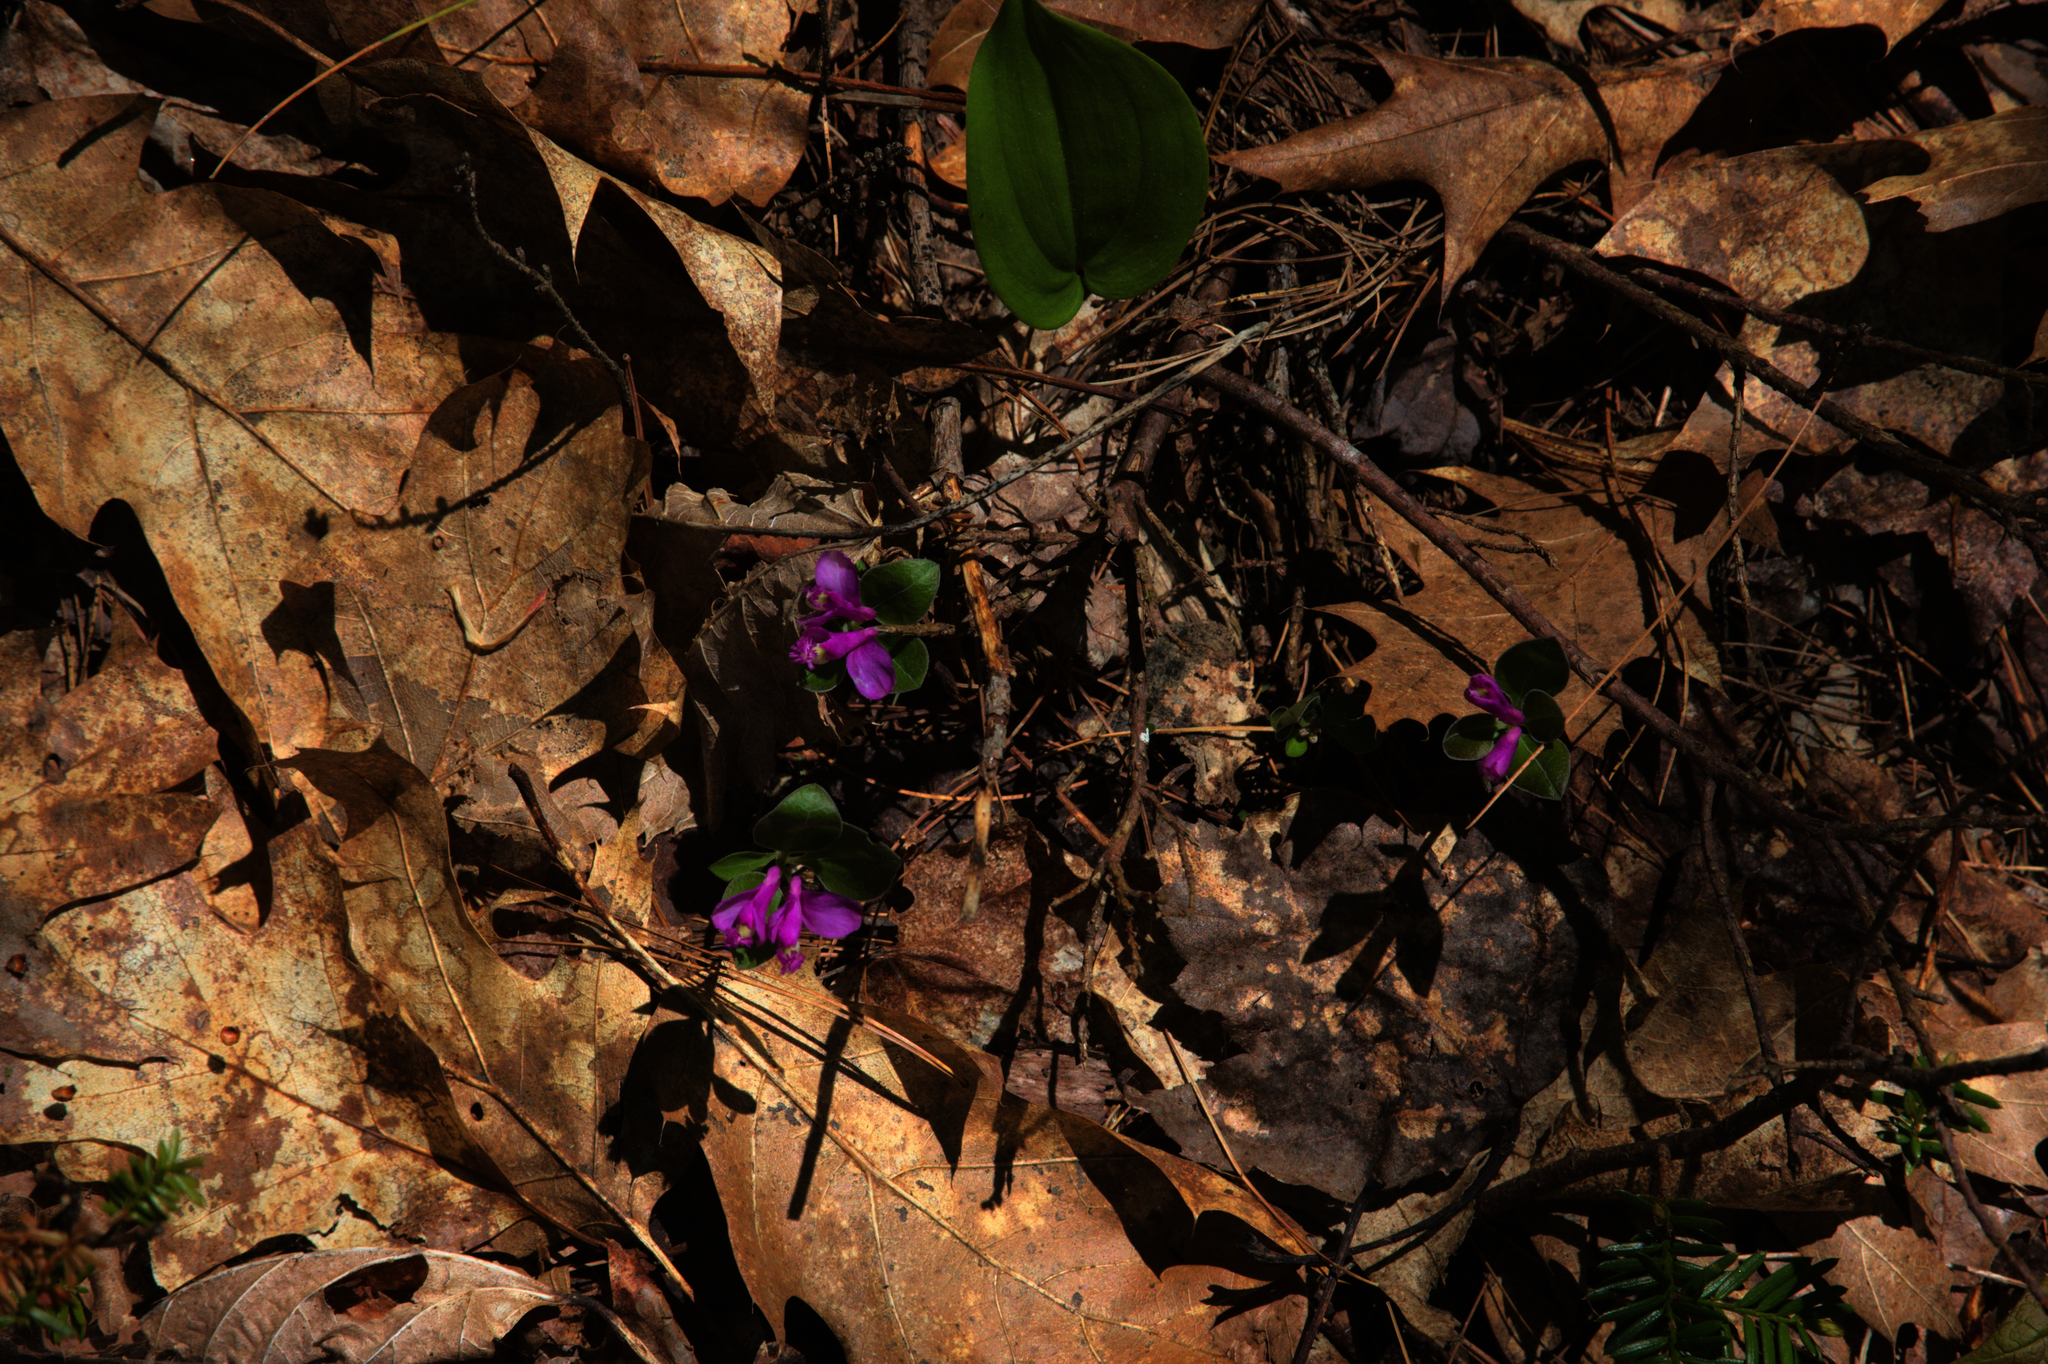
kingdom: Plantae
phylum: Tracheophyta
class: Liliopsida
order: Asparagales
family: Asparagaceae
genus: Maianthemum
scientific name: Maianthemum canadense
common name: False lily-of-the-valley
